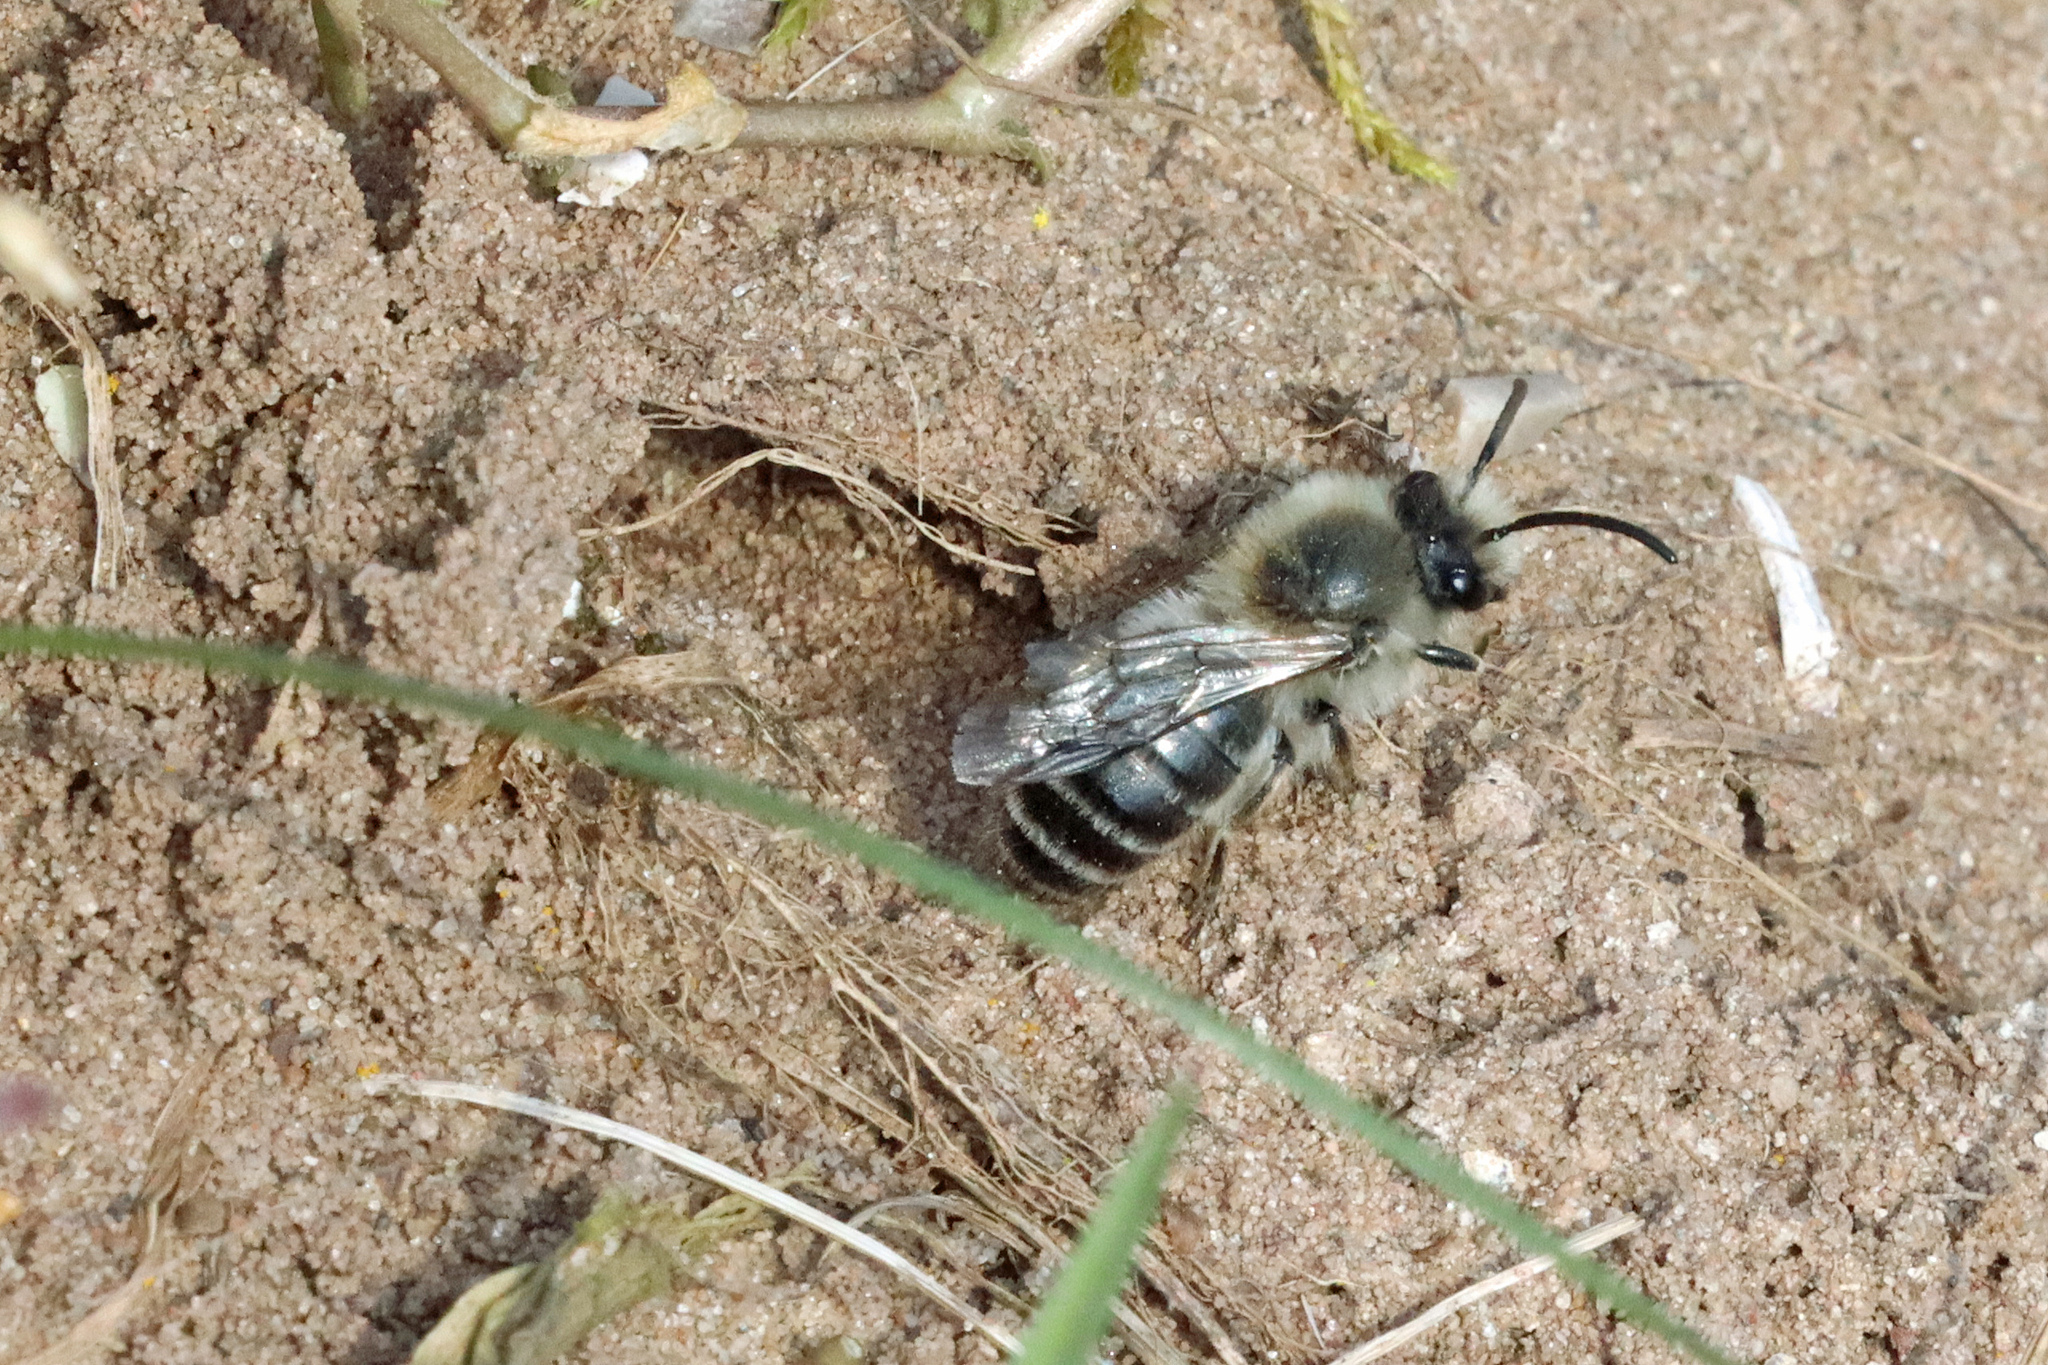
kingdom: Animalia
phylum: Arthropoda
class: Insecta
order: Hymenoptera
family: Colletidae
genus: Colletes
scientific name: Colletes cunicularius
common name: Early colletes
